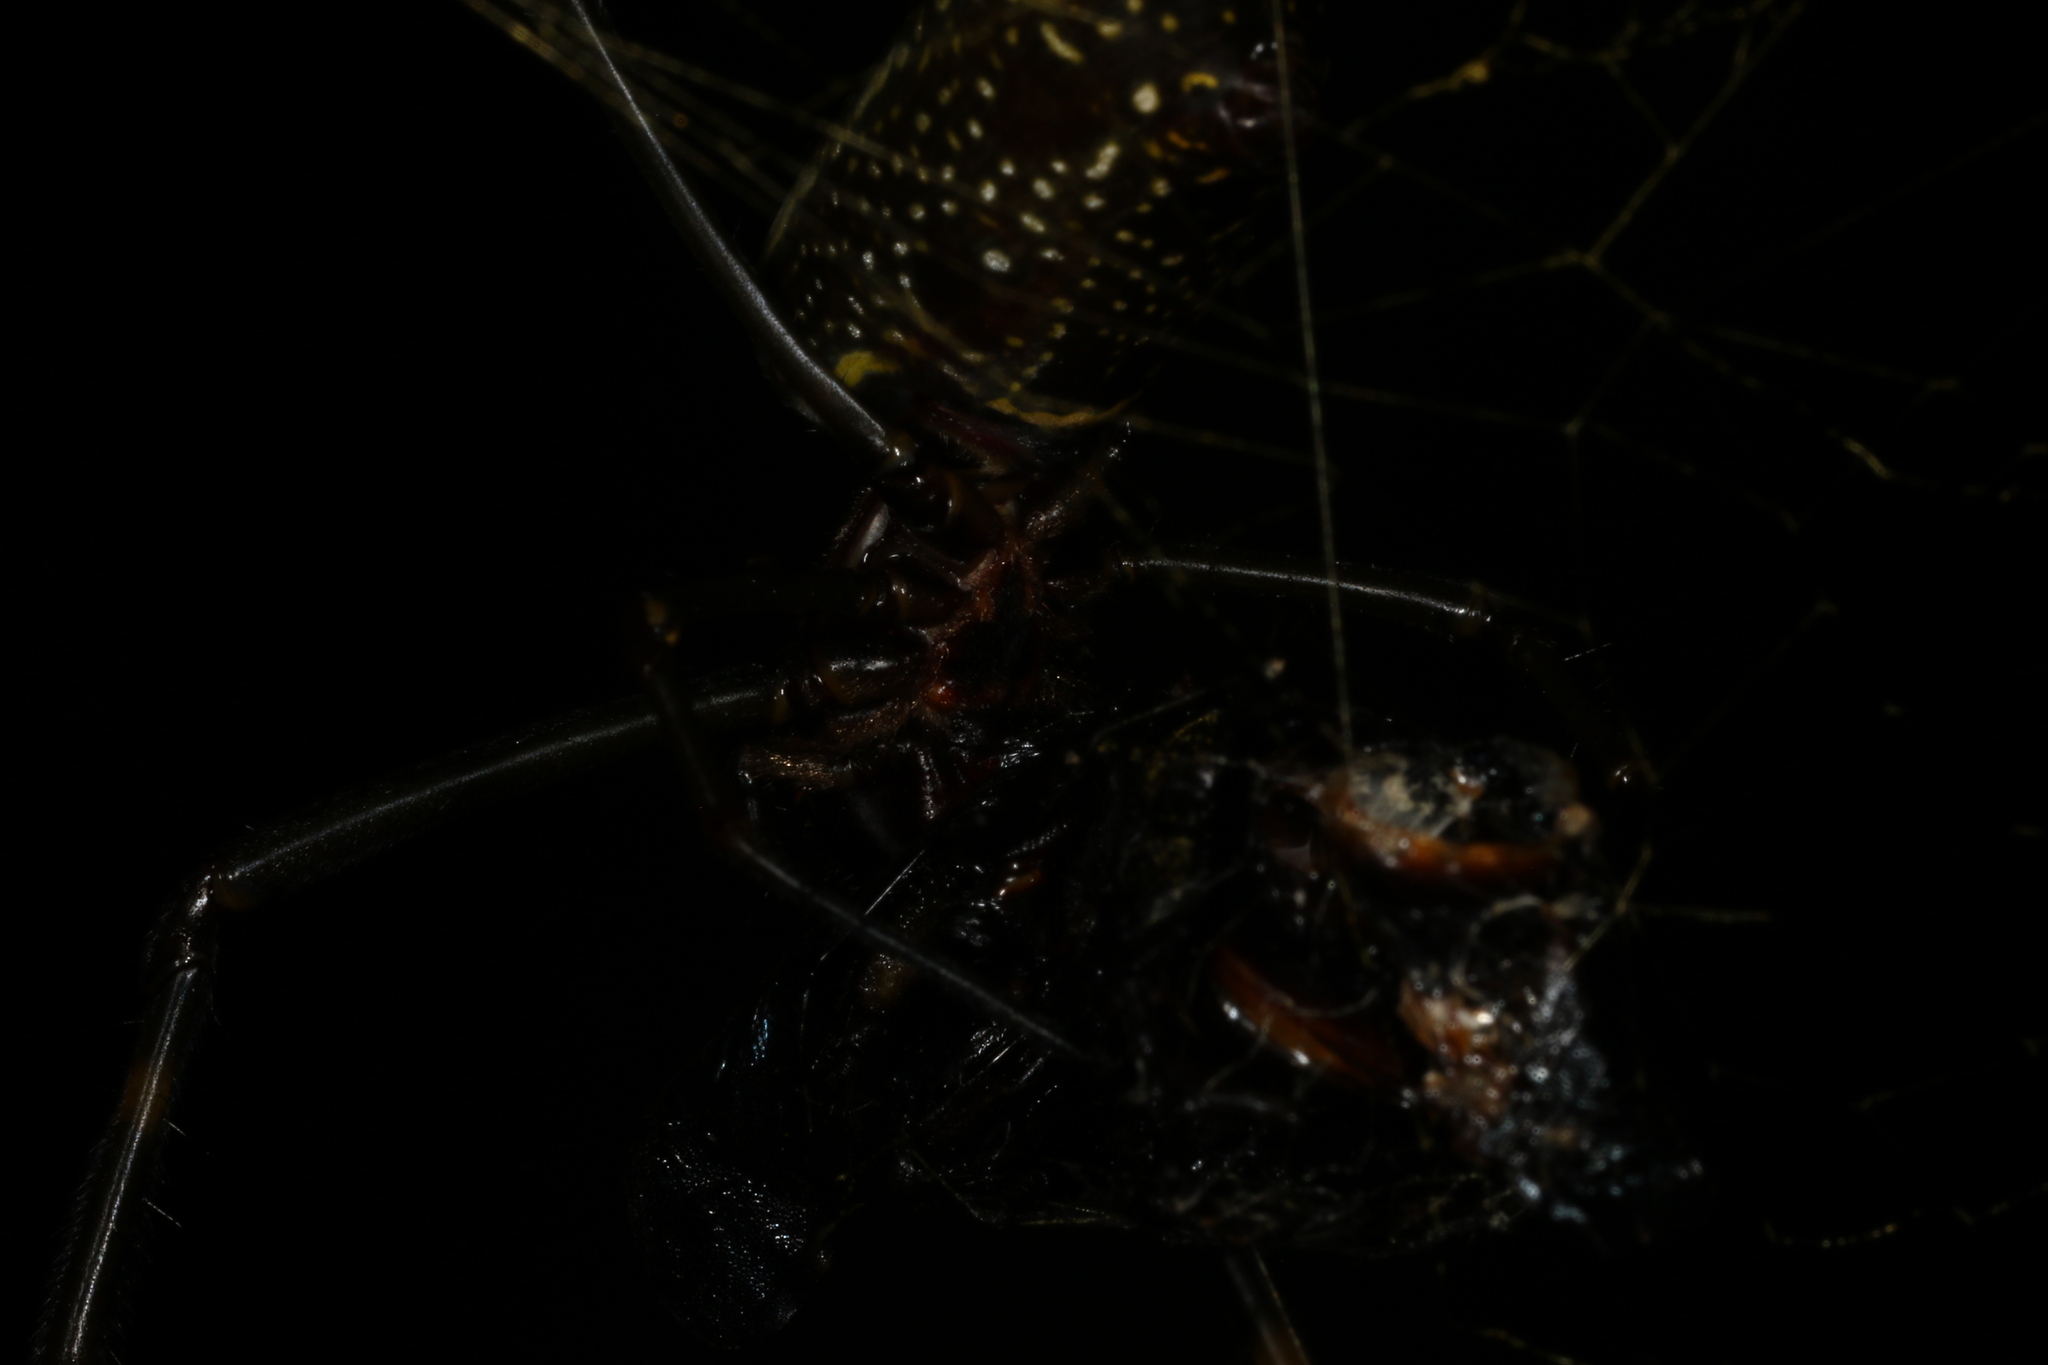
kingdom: Animalia
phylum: Arthropoda
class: Arachnida
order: Araneae
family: Araneidae
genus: Trichonephila
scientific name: Trichonephila clavipes
